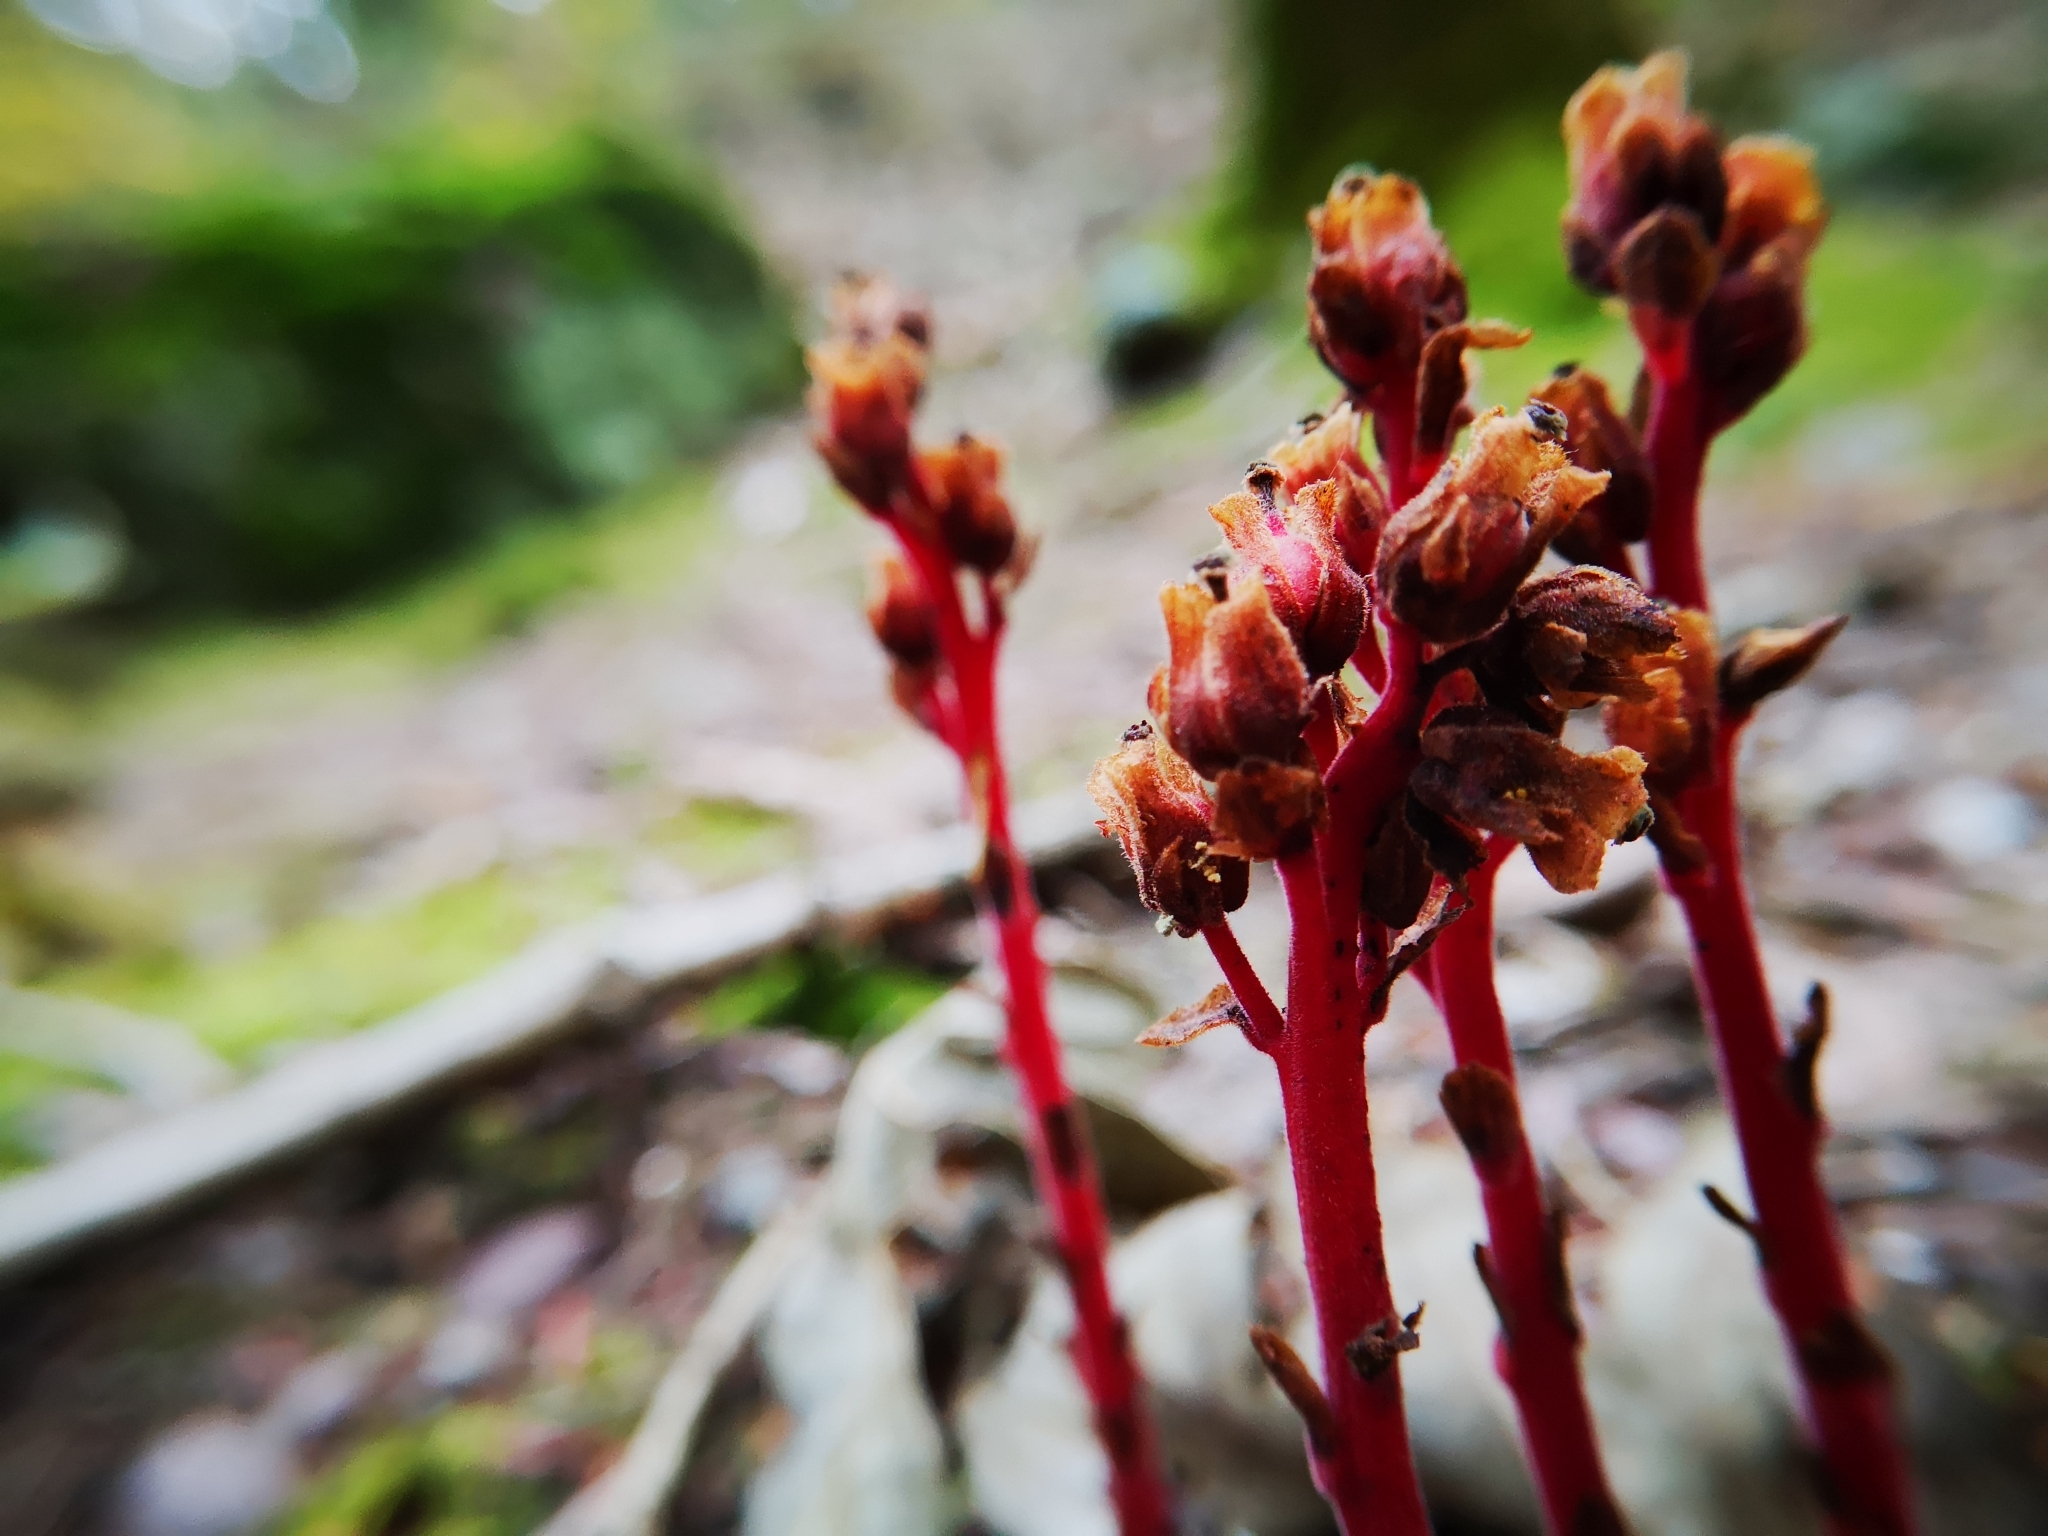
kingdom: Plantae
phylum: Tracheophyta
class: Magnoliopsida
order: Ericales
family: Ericaceae
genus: Hypopitys
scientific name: Hypopitys monotropa
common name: Yellow bird's-nest
